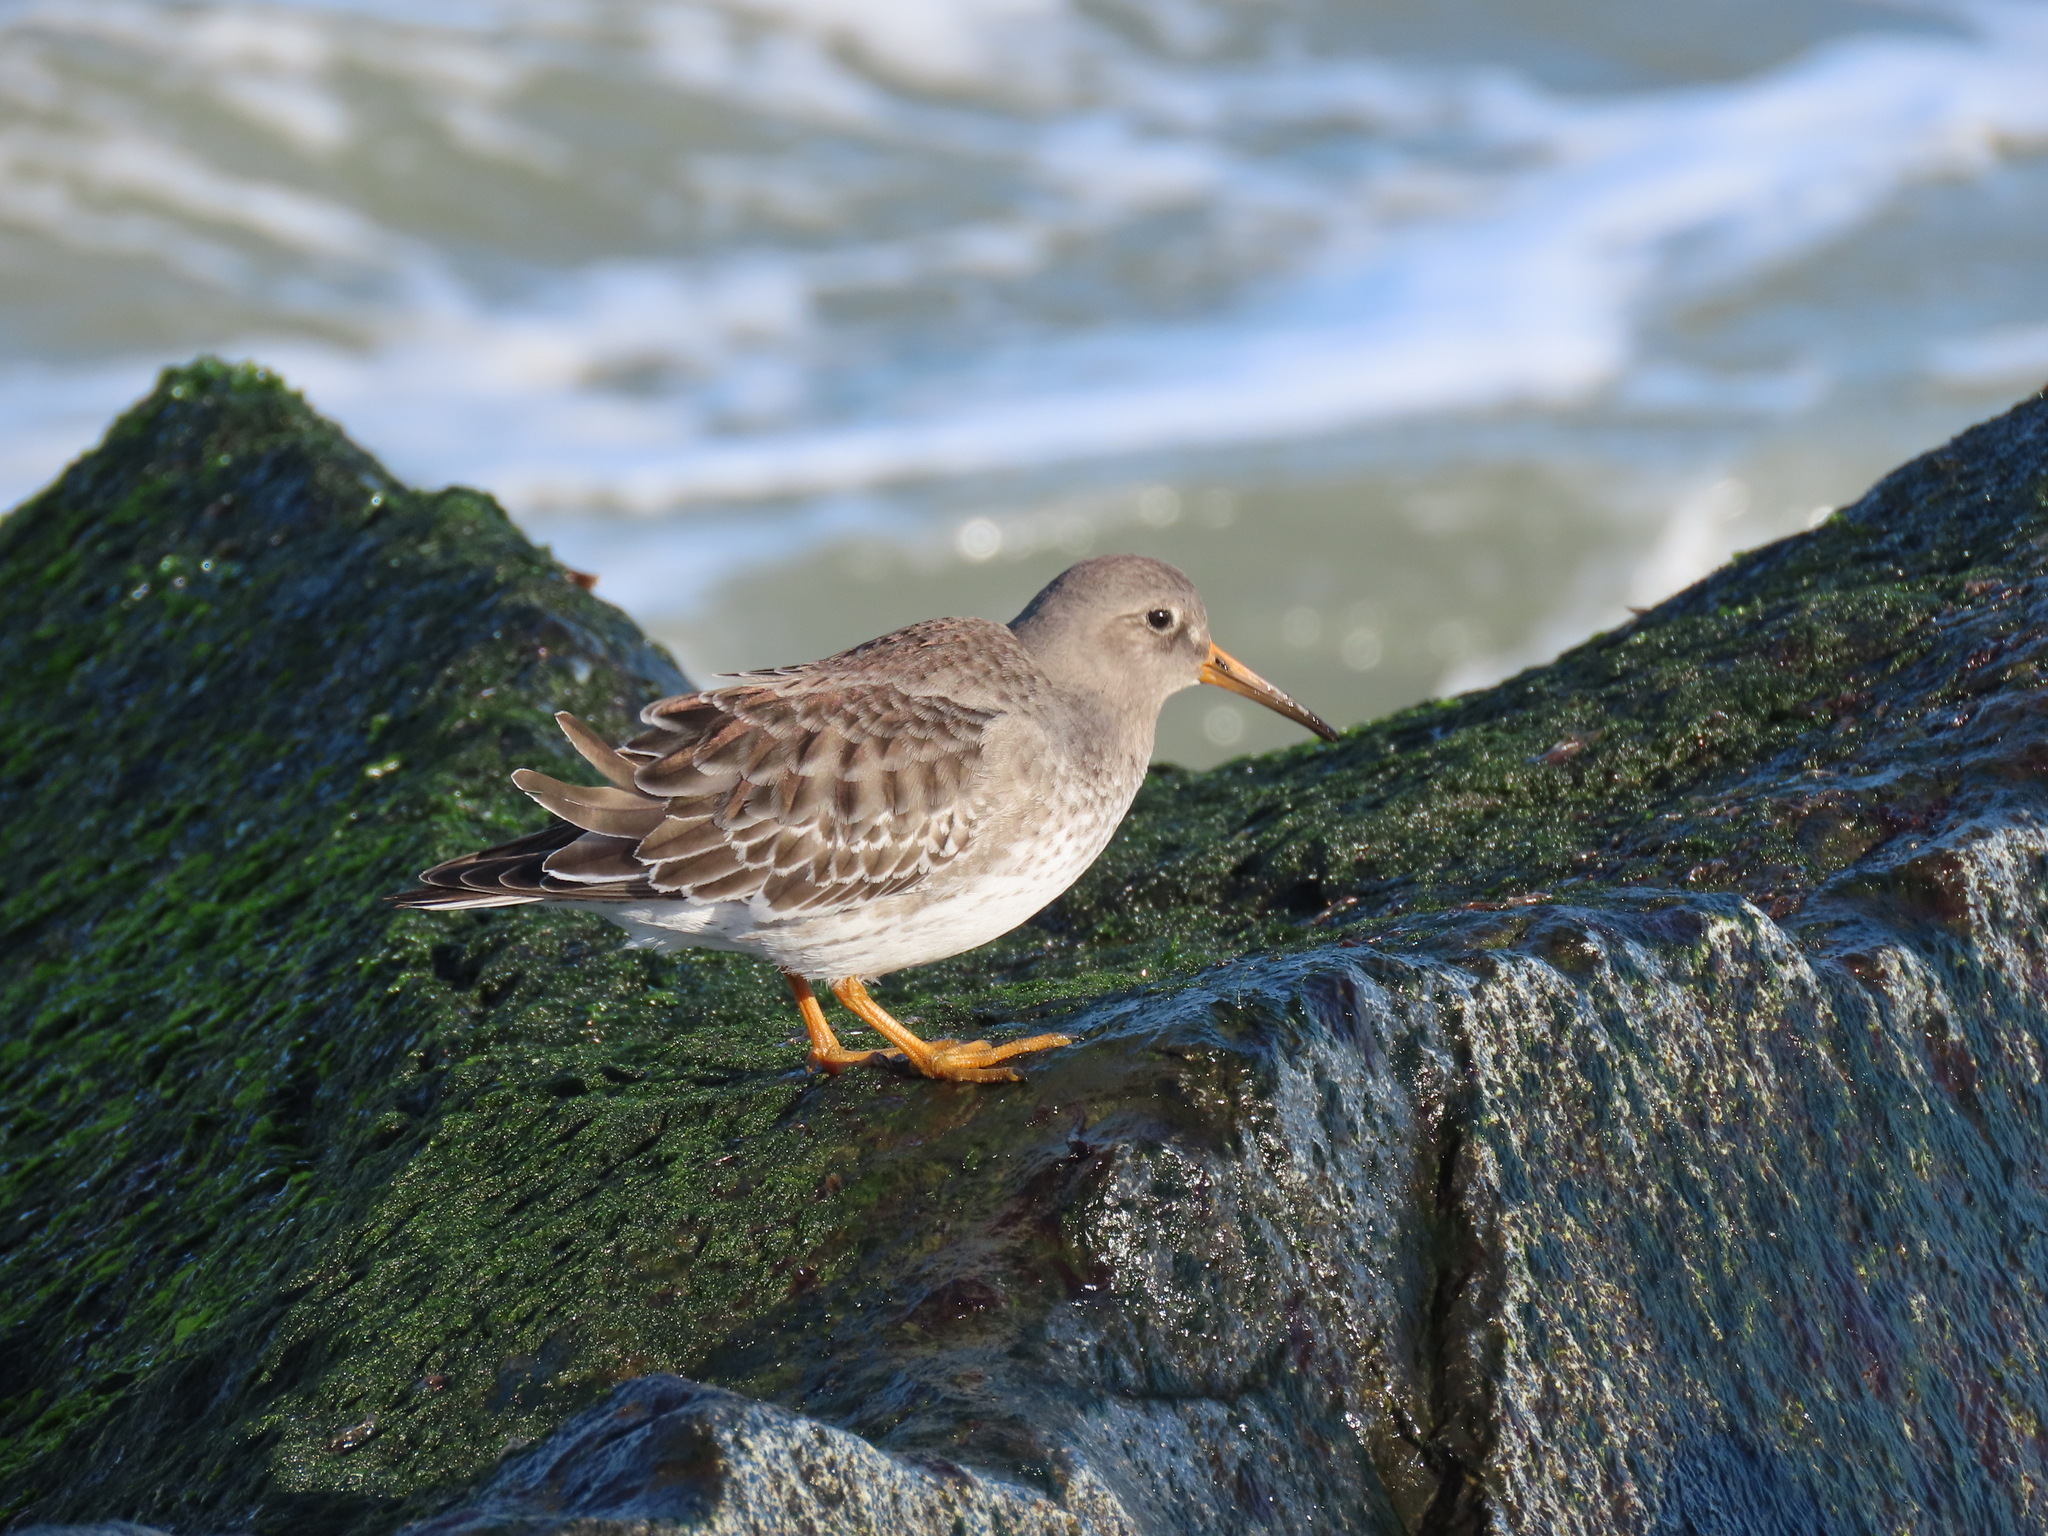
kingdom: Animalia
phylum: Chordata
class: Aves
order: Charadriiformes
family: Scolopacidae
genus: Calidris
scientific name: Calidris maritima
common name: Purple sandpiper
